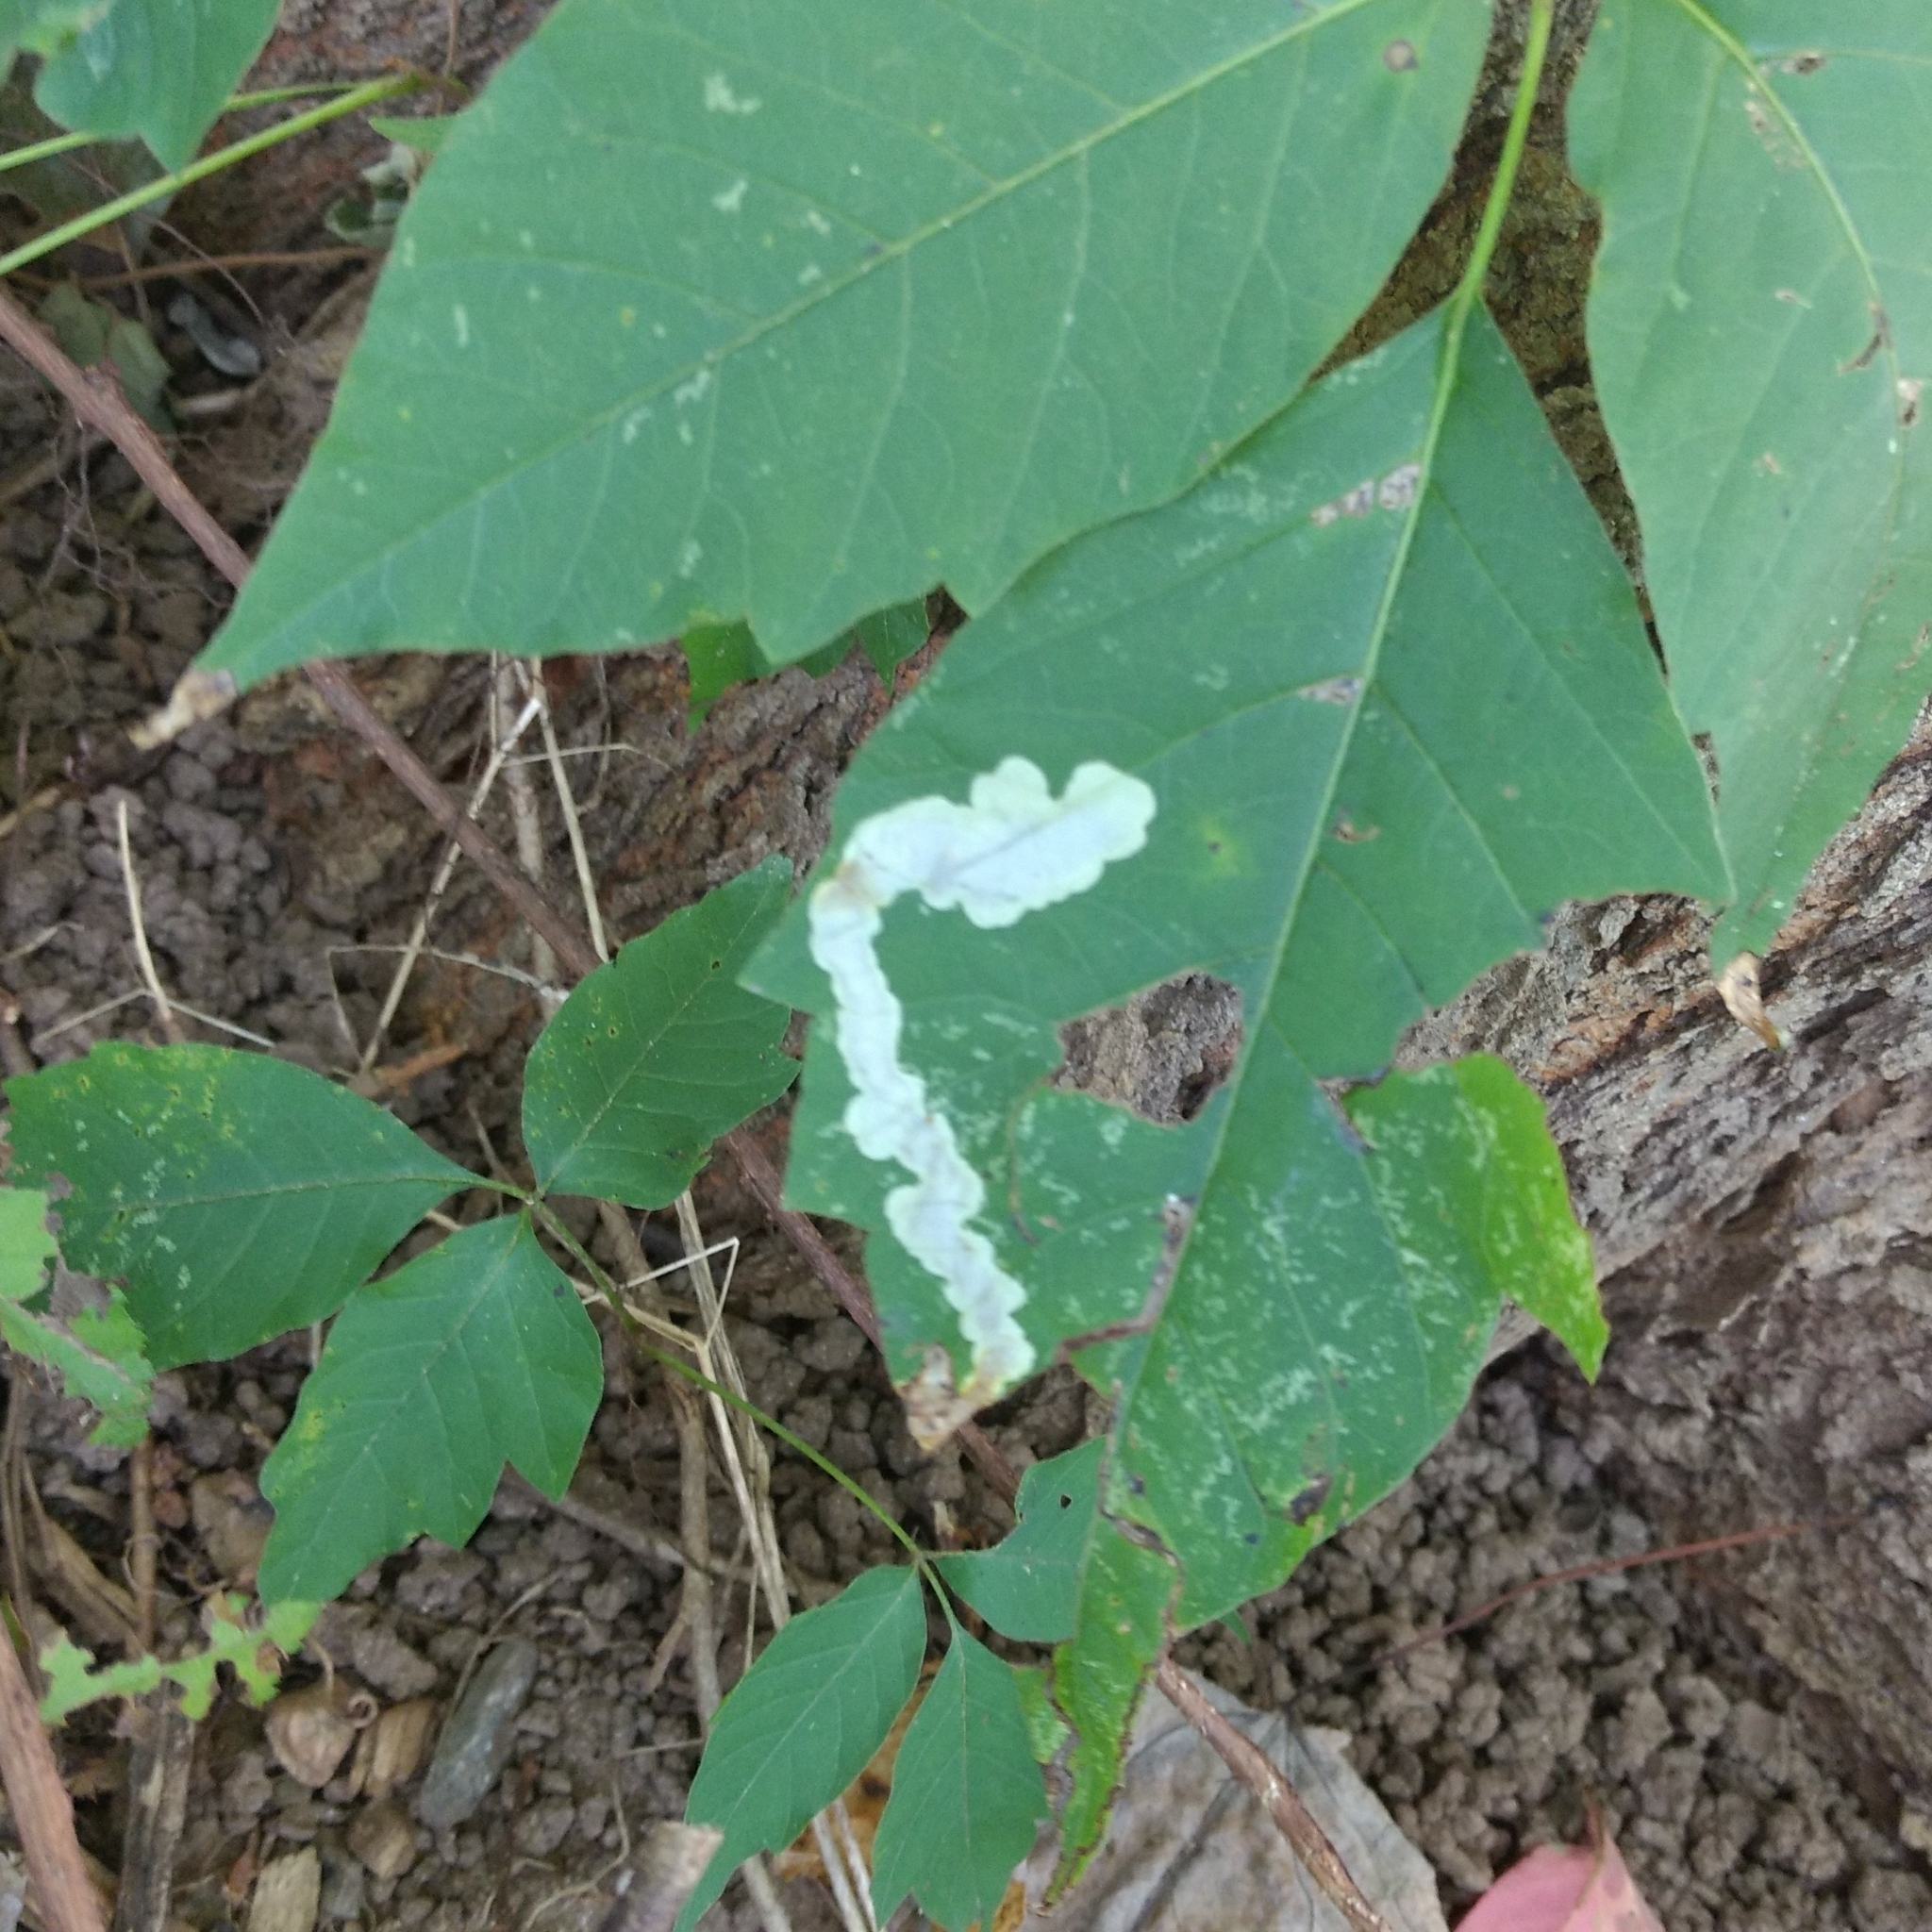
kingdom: Animalia
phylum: Arthropoda
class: Insecta
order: Lepidoptera
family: Gracillariidae
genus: Cameraria
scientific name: Cameraria guttifinitella
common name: Poison ivy leaf-miner moth
